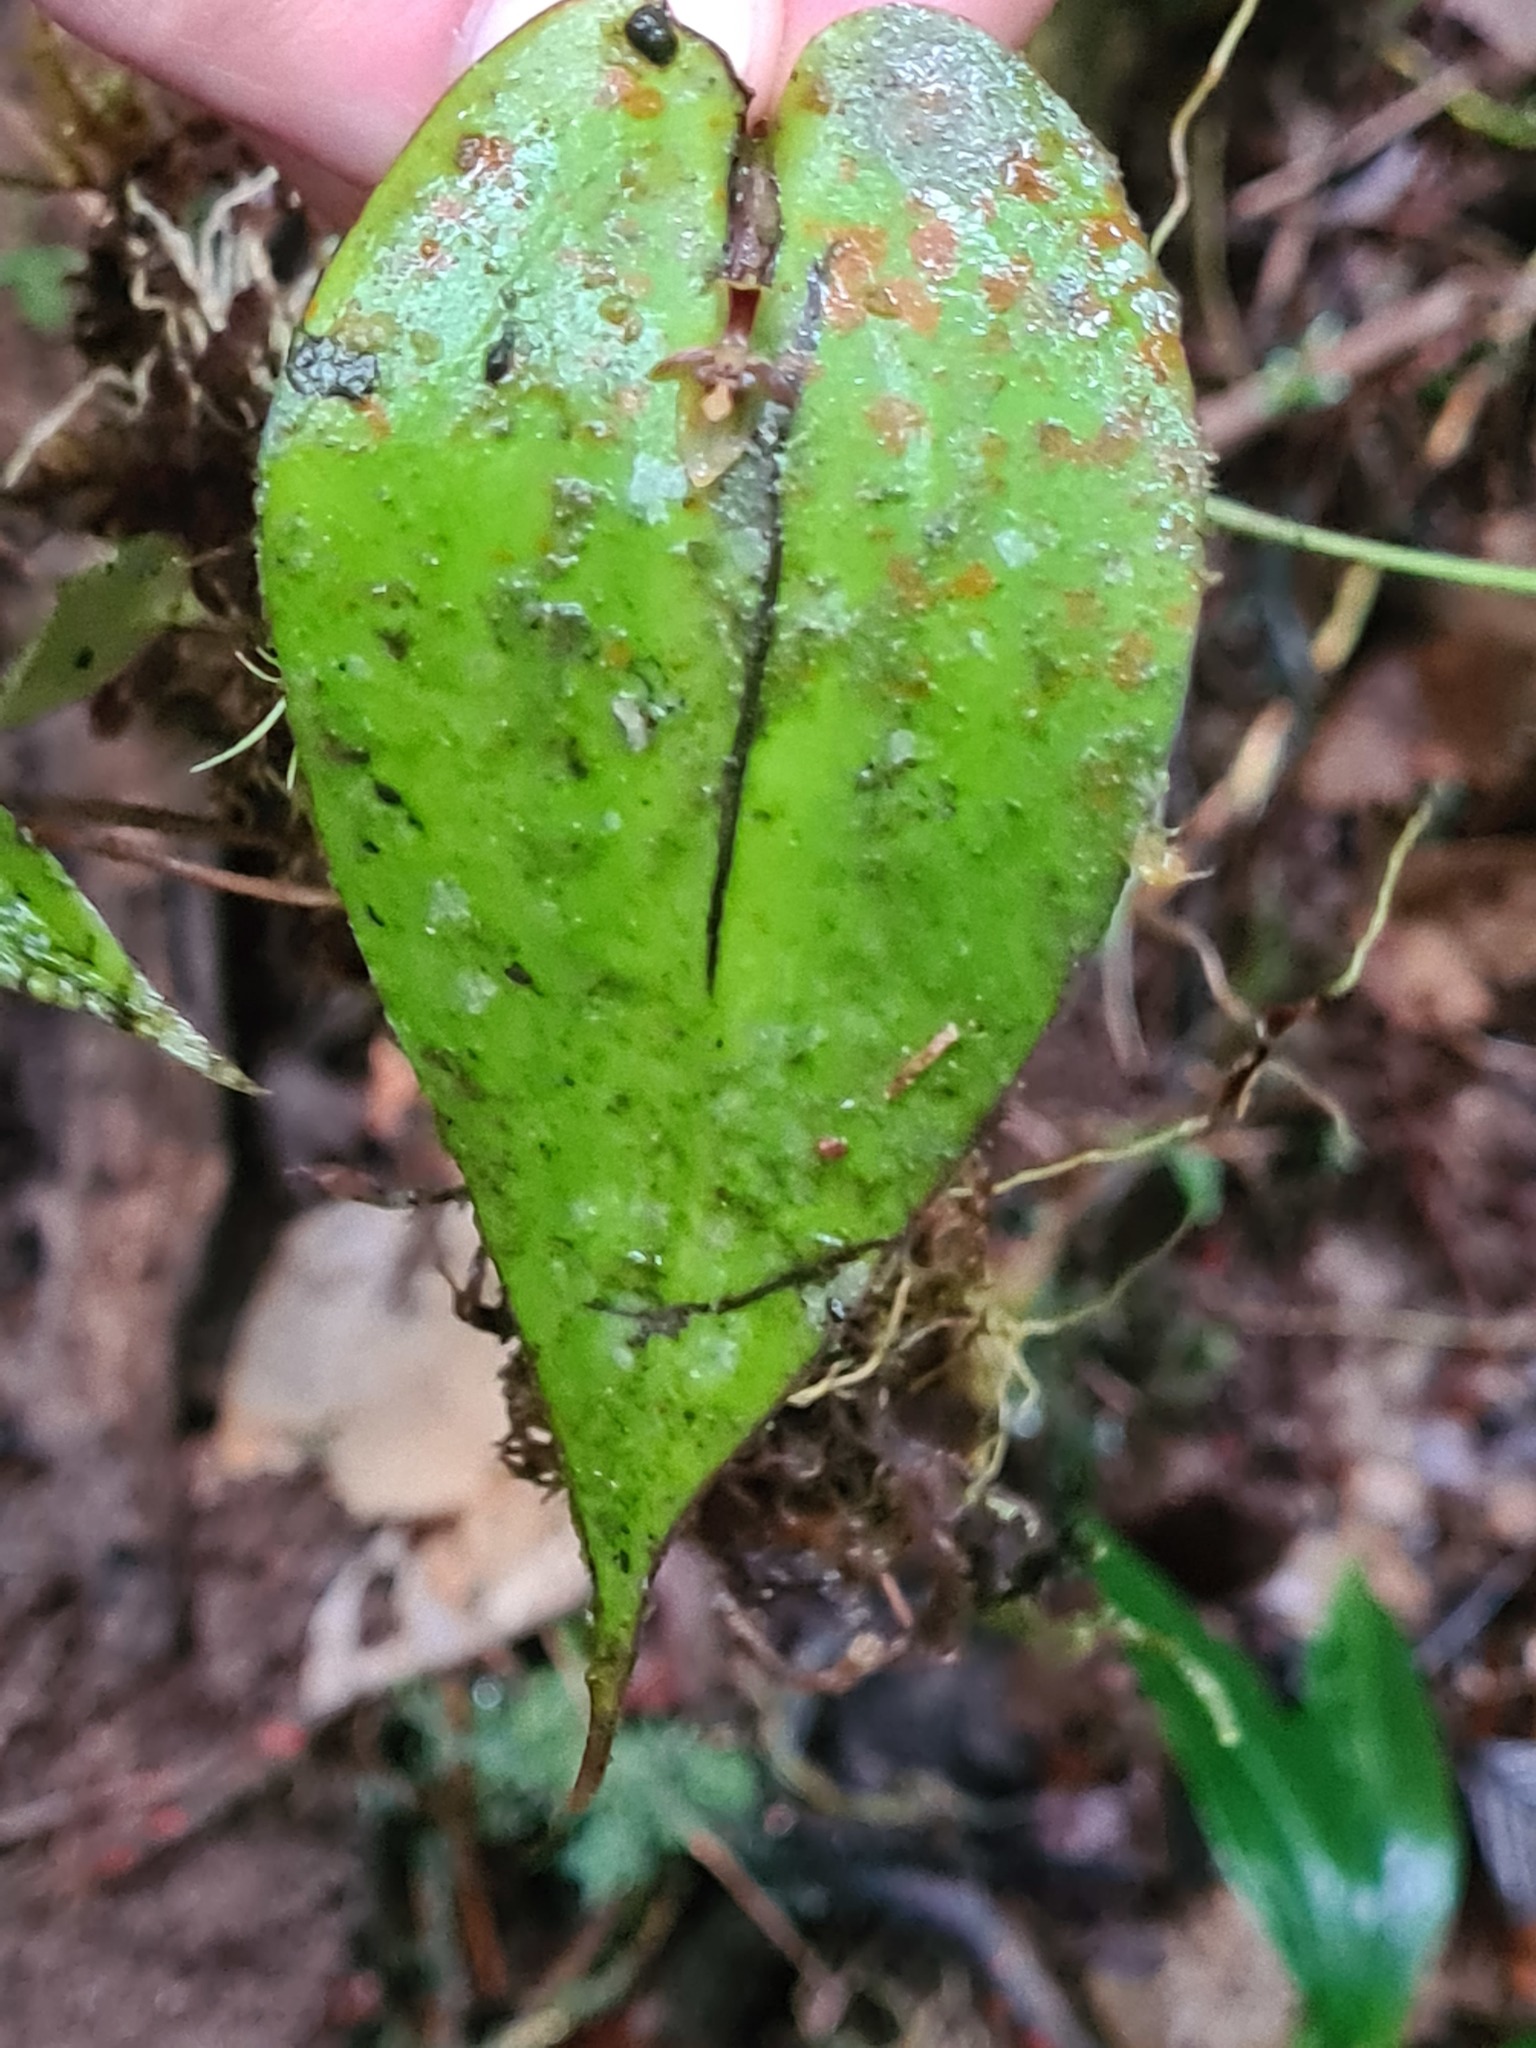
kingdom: Plantae
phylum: Tracheophyta
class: Liliopsida
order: Asparagales
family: Orchidaceae
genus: Pleurothallis
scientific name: Pleurothallis convexa
